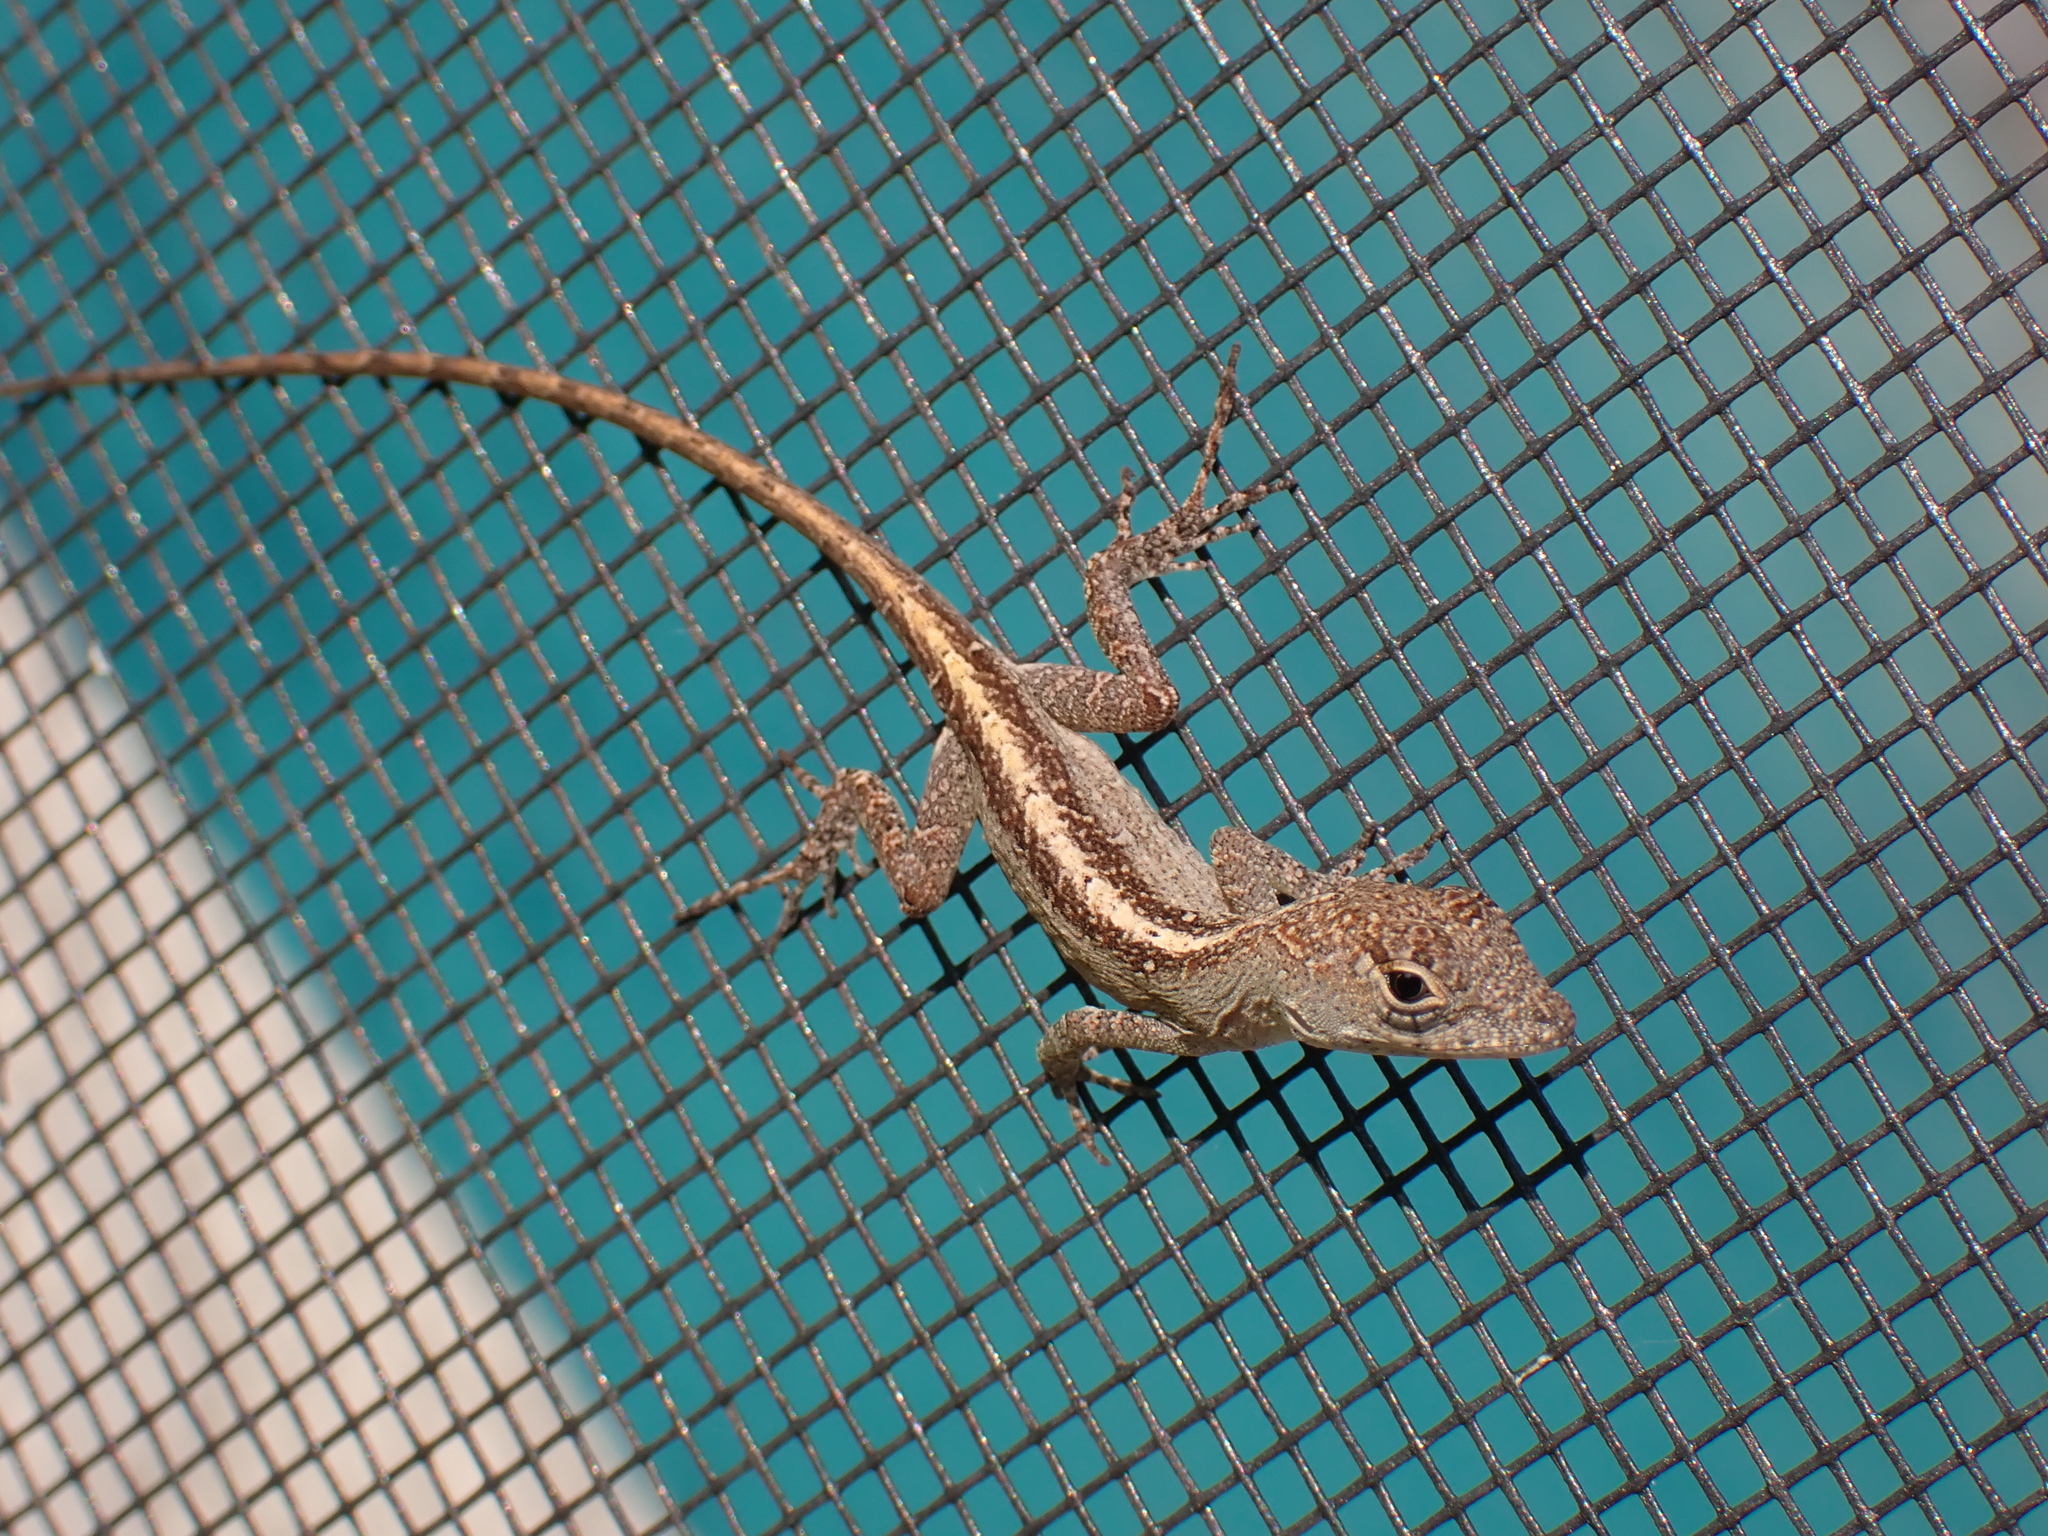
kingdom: Animalia
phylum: Chordata
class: Squamata
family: Dactyloidae
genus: Anolis
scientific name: Anolis sagrei
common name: Brown anole
